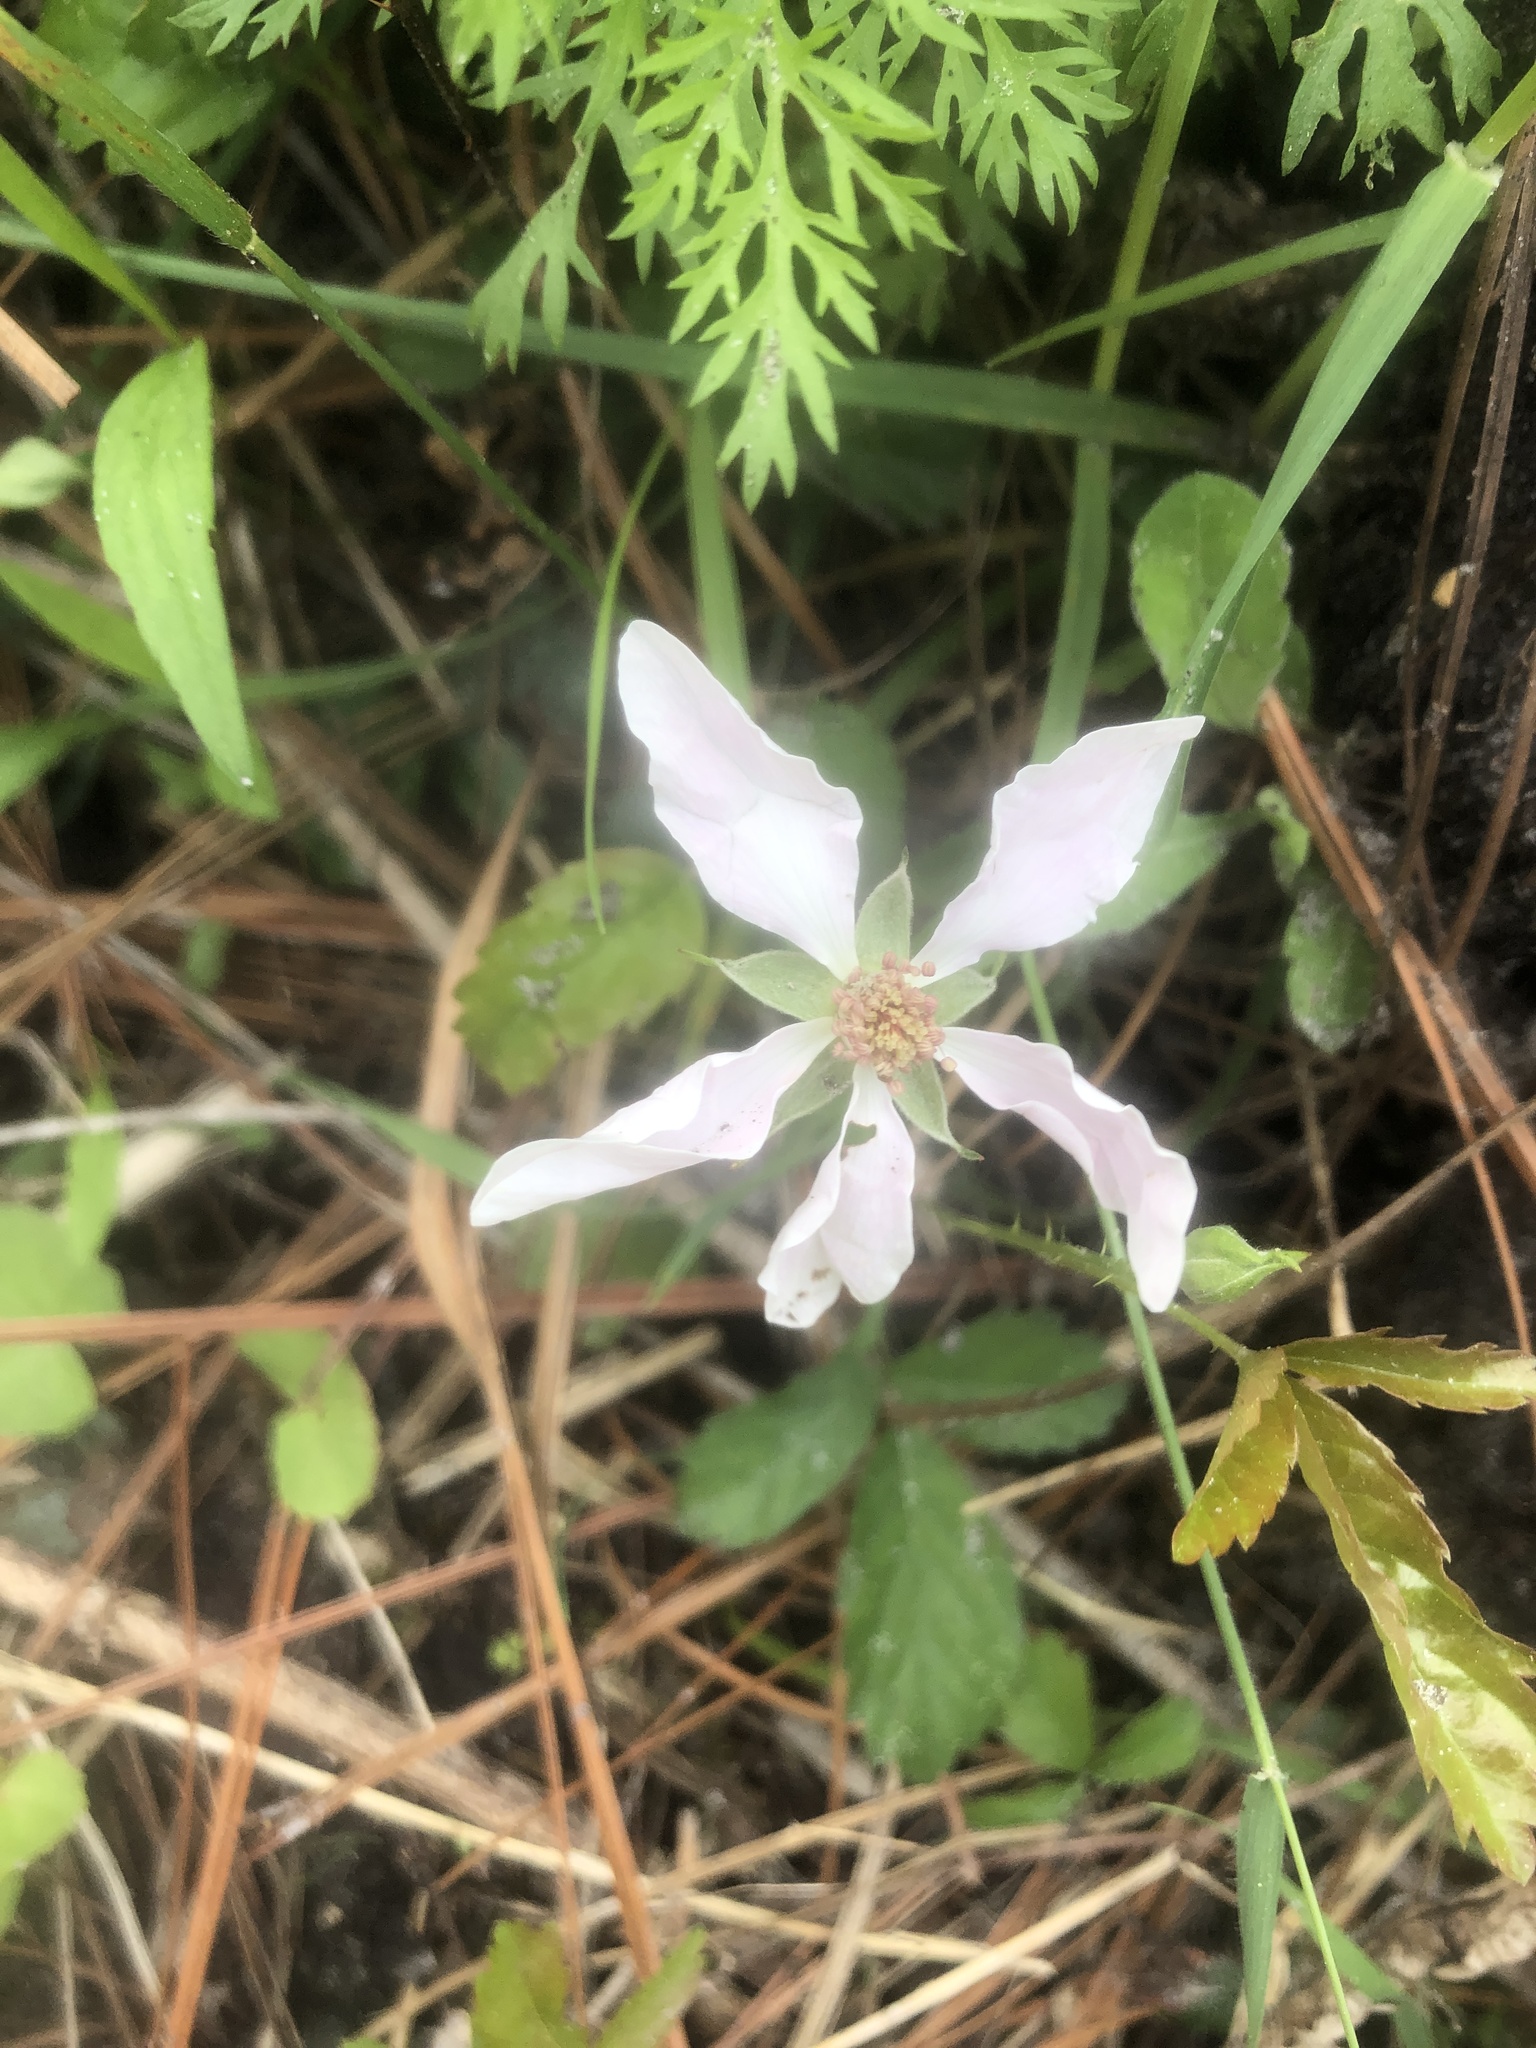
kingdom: Plantae
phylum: Tracheophyta
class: Magnoliopsida
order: Rosales
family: Rosaceae
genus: Rubus
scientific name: Rubus cuneifolius
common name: American bramble
